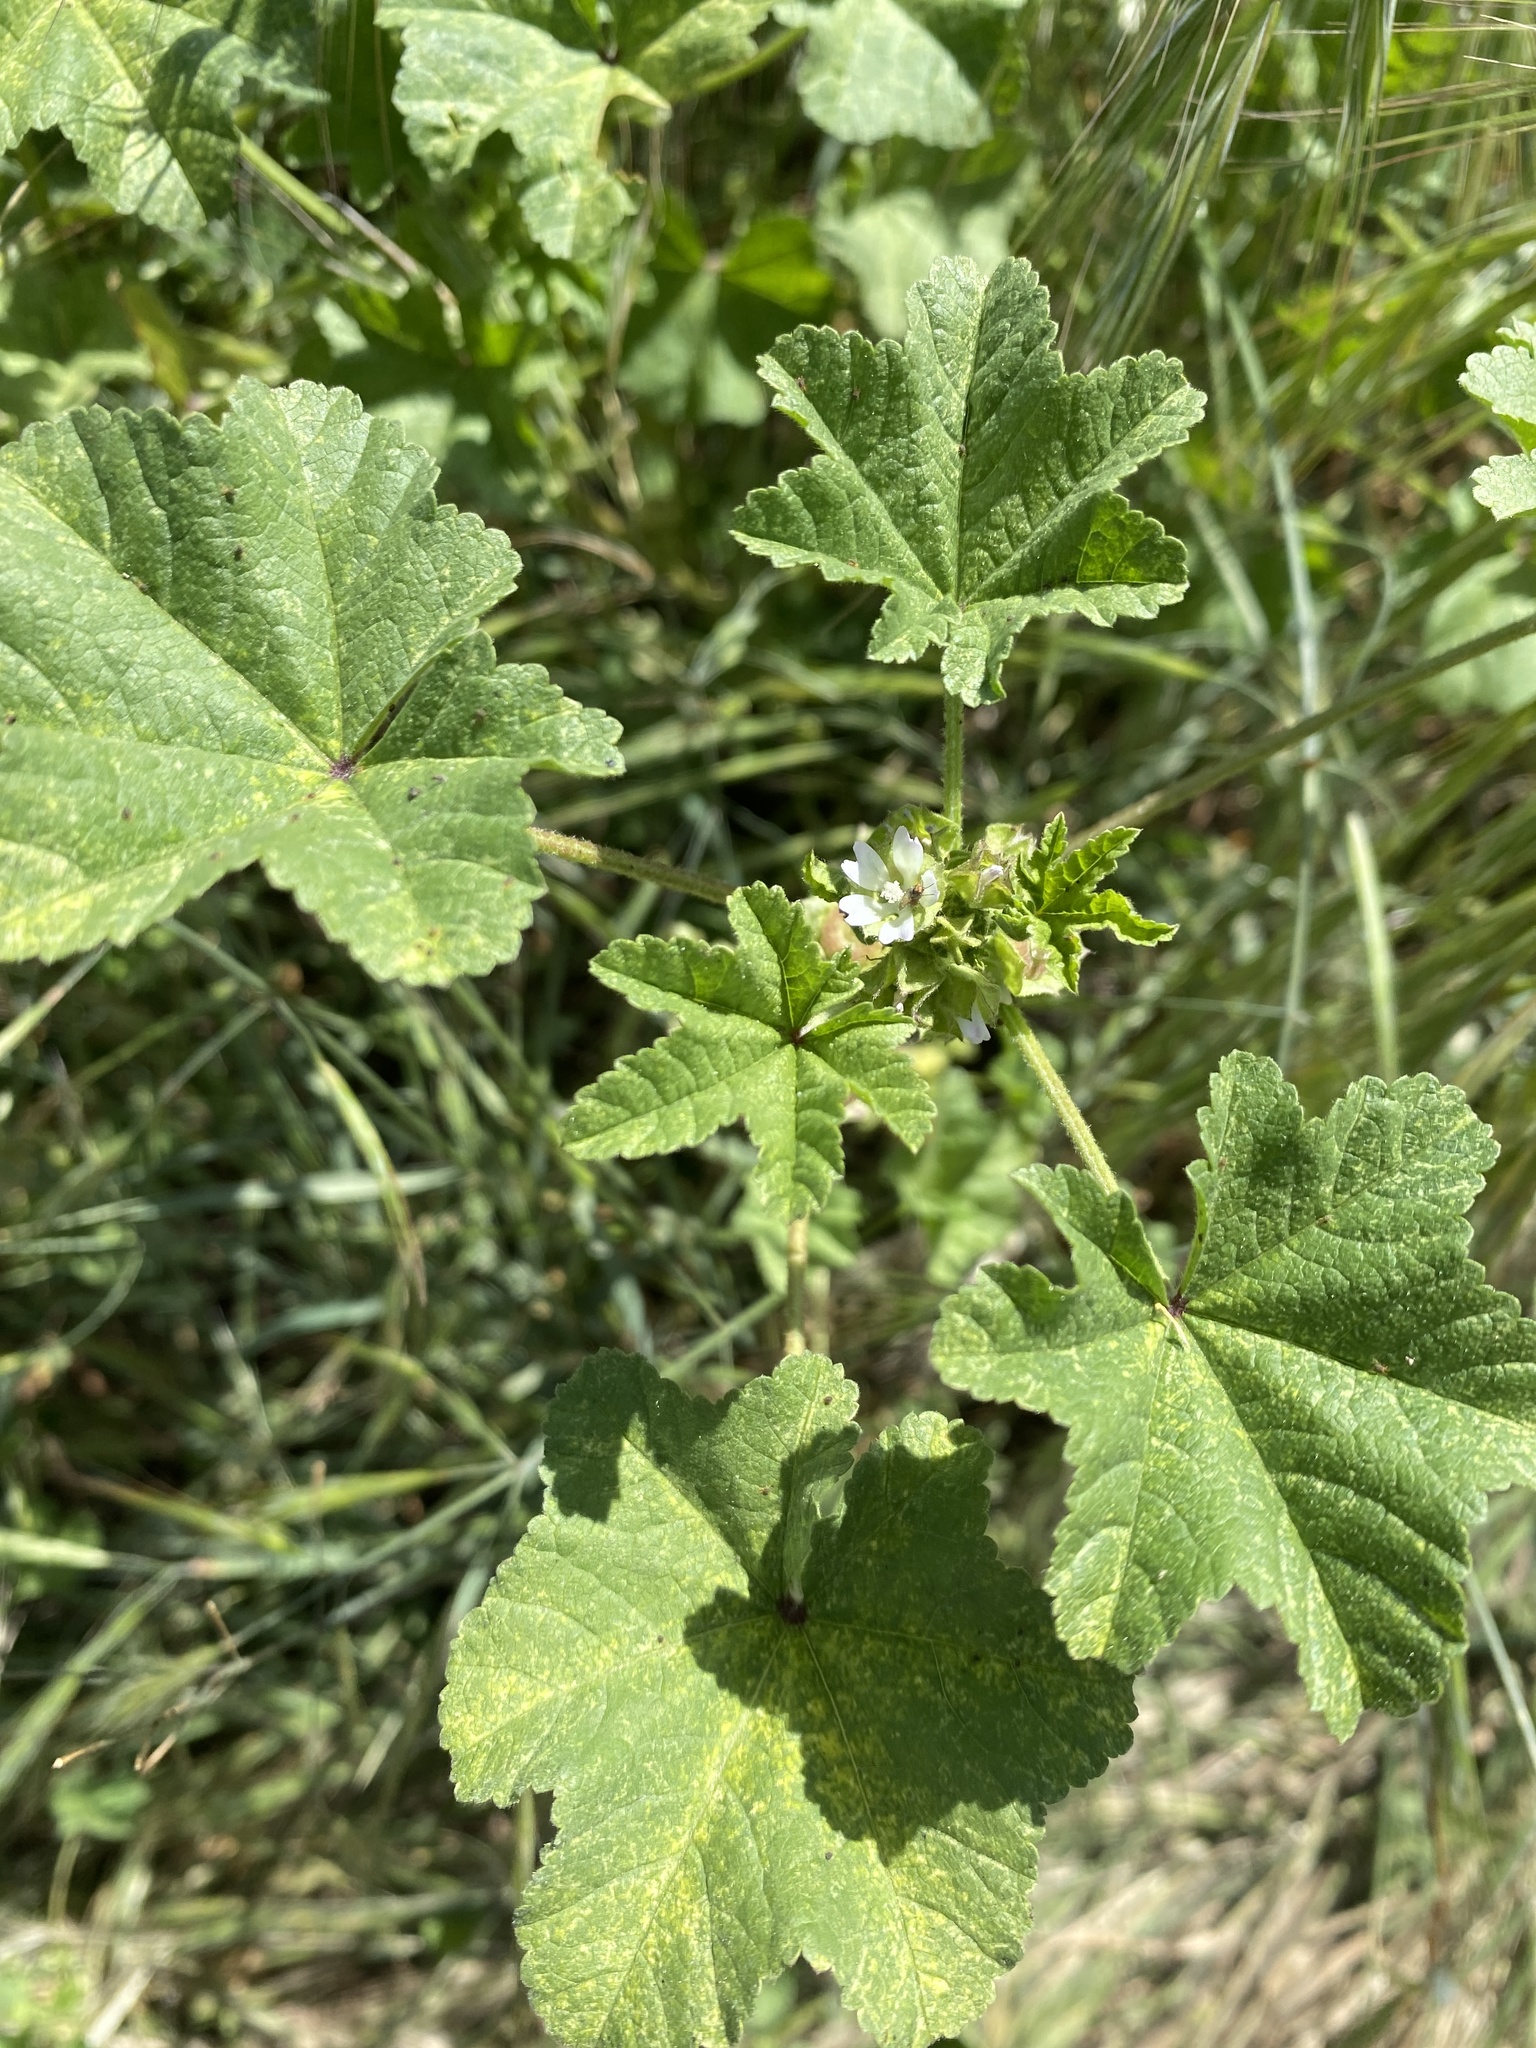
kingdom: Plantae
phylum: Tracheophyta
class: Magnoliopsida
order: Malvales
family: Malvaceae
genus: Malva
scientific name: Malva parviflora
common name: Least mallow
